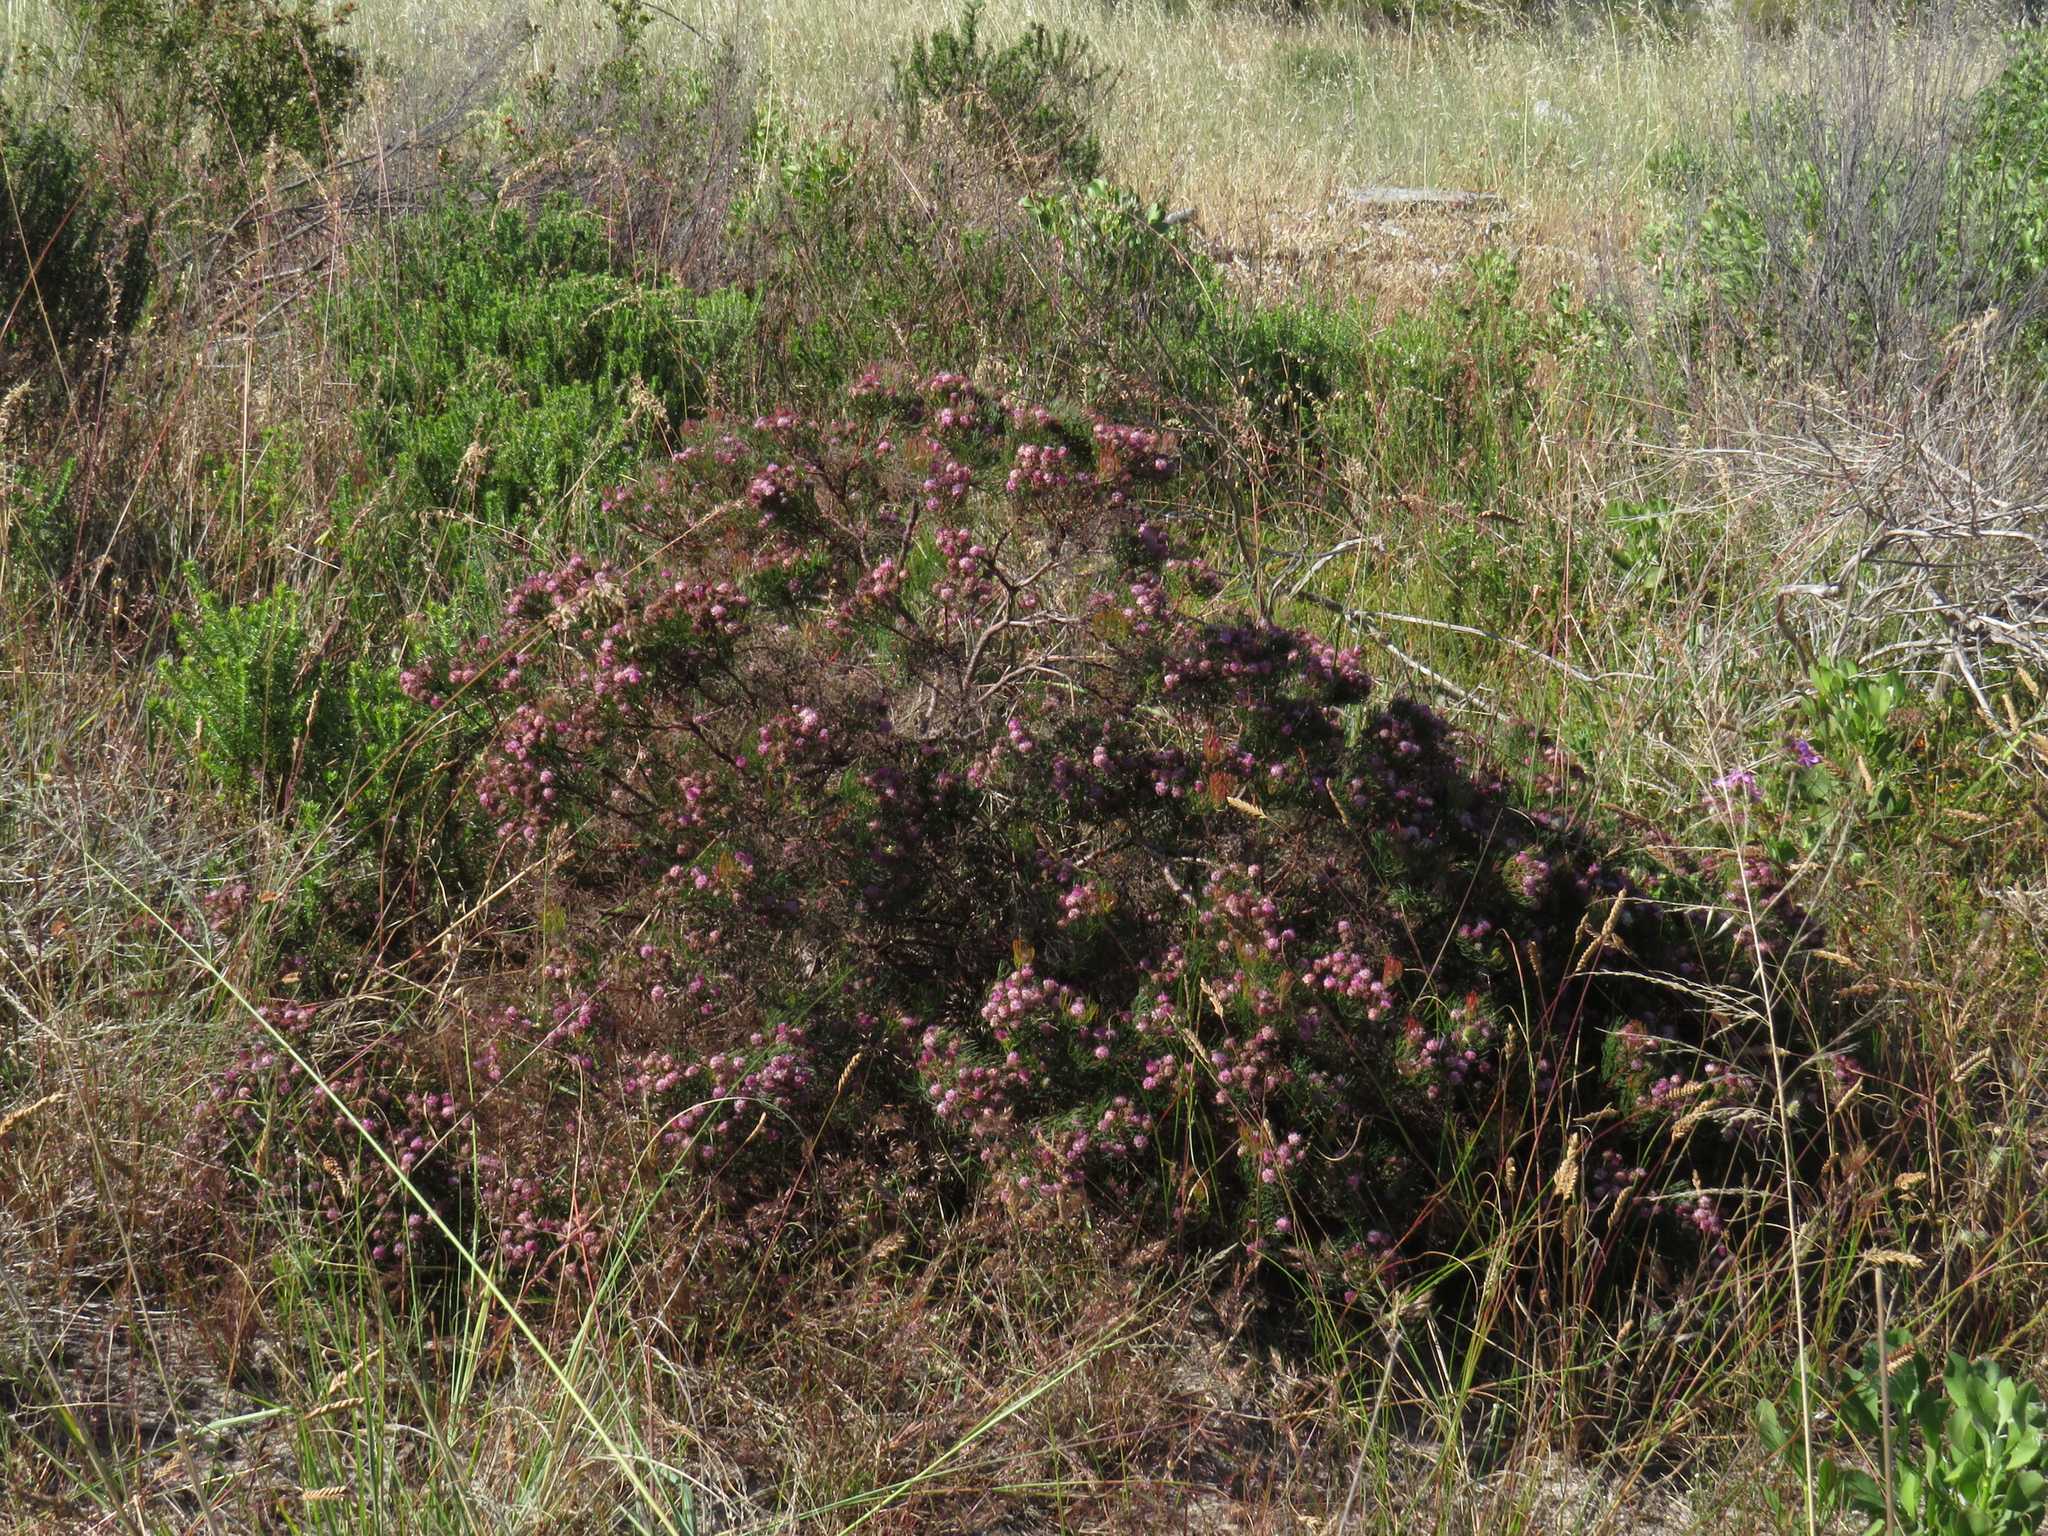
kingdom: Plantae
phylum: Tracheophyta
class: Magnoliopsida
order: Proteales
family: Proteaceae
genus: Serruria
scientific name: Serruria fasciflora
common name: Common pin spiderhead
